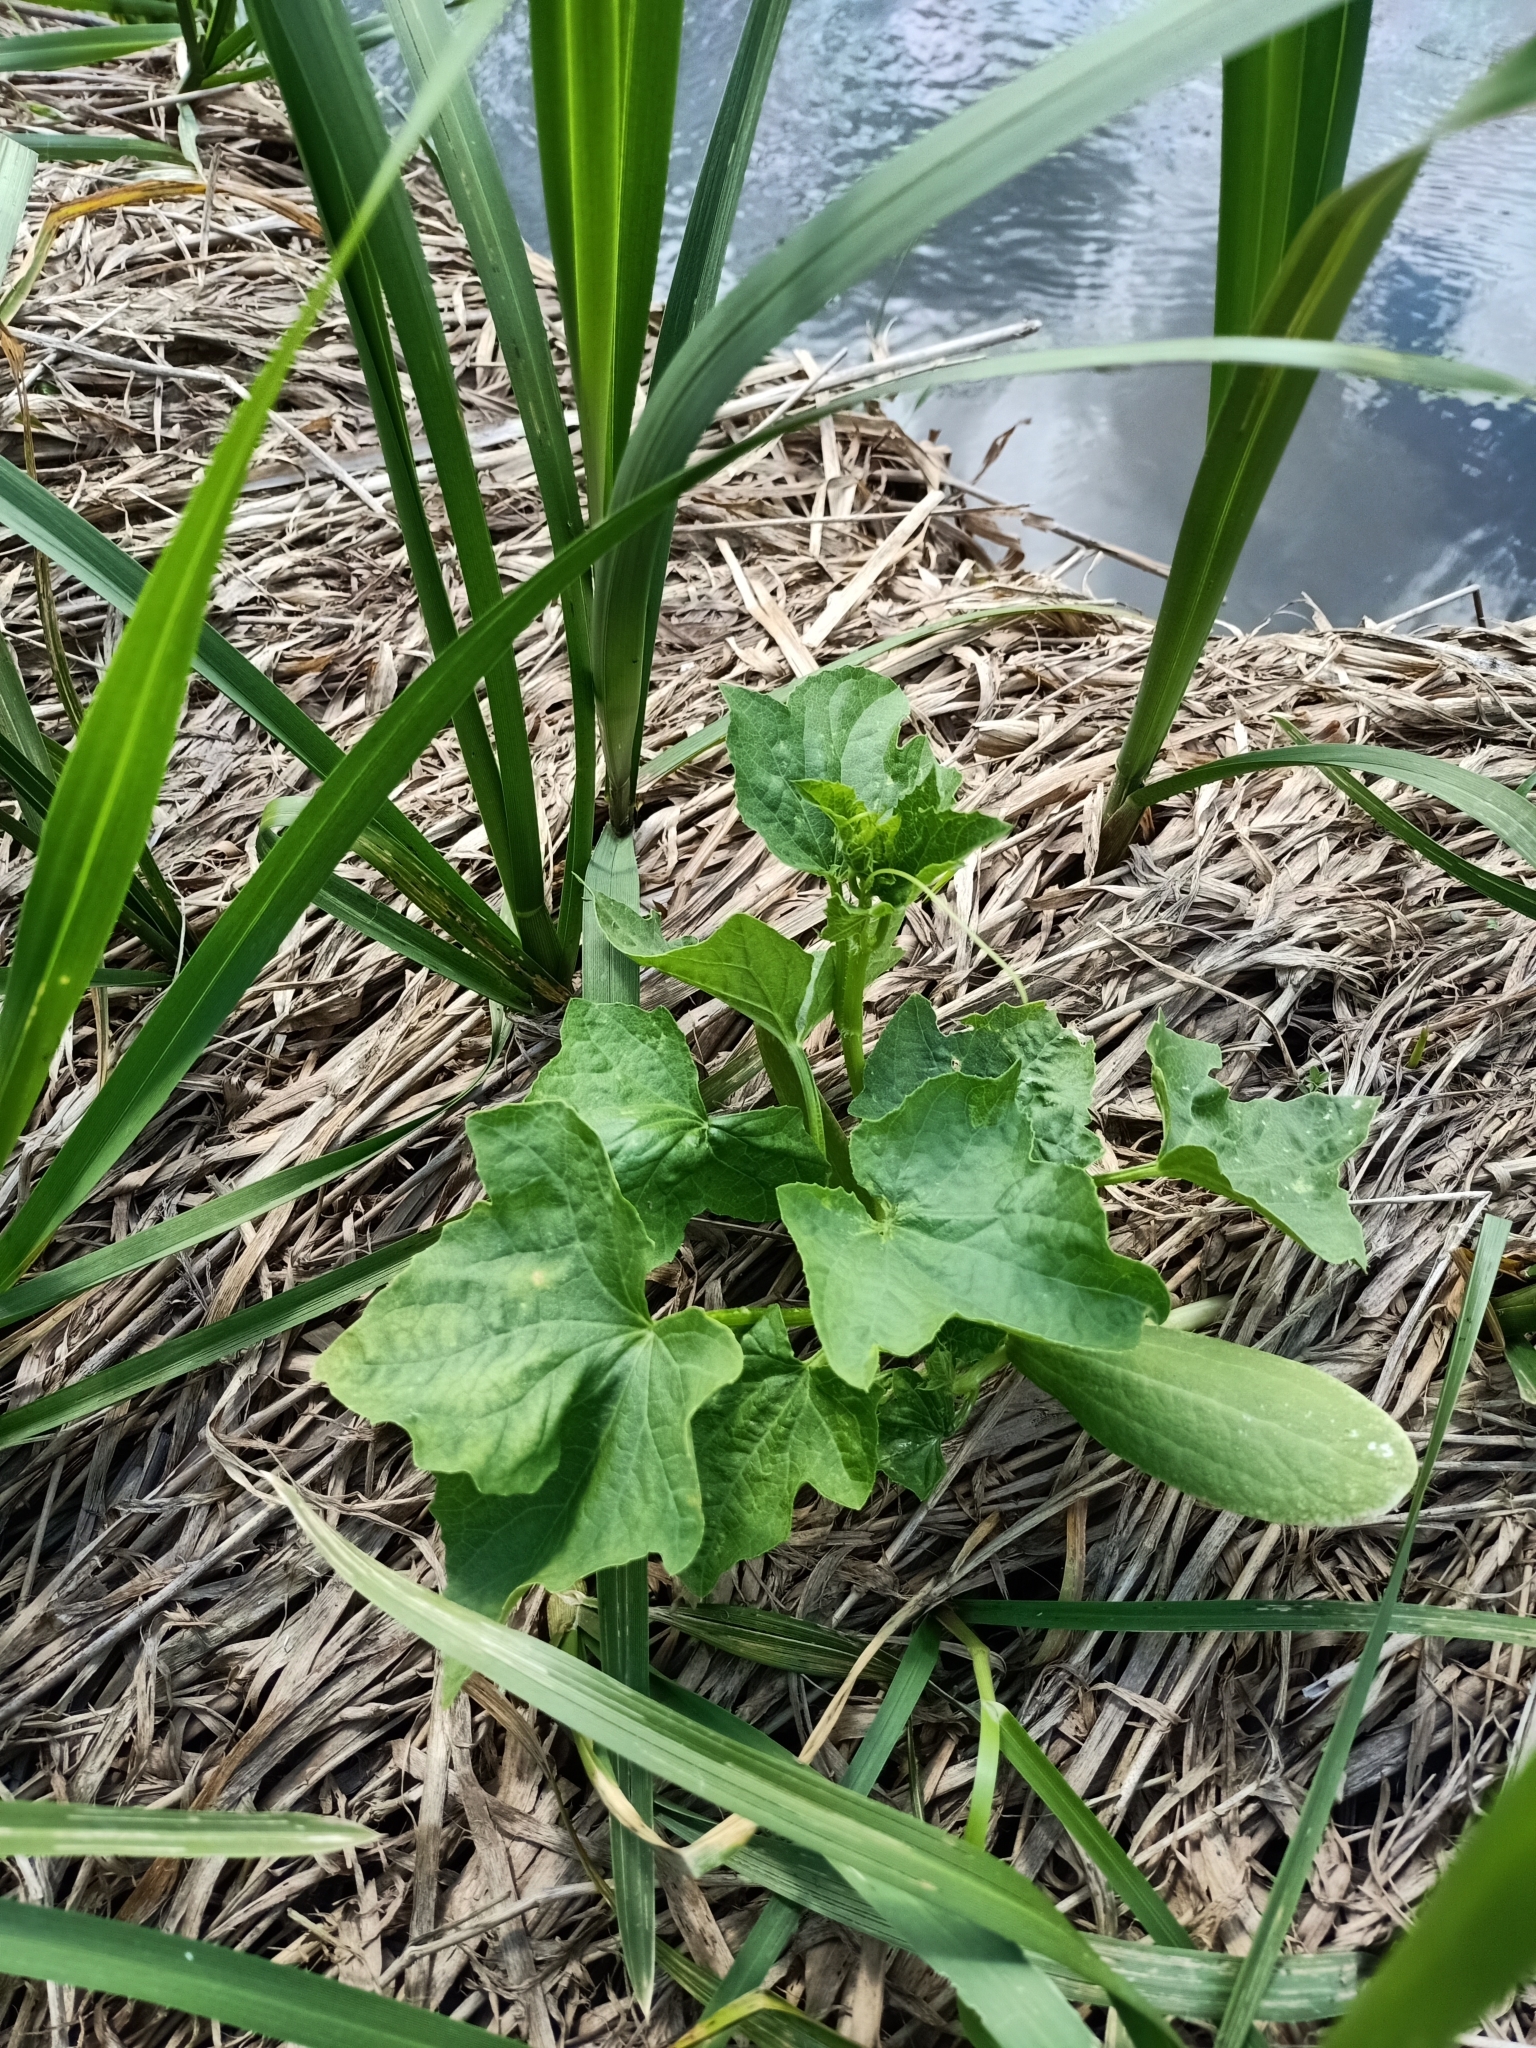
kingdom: Plantae
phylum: Tracheophyta
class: Magnoliopsida
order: Cucurbitales
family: Cucurbitaceae
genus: Echinocystis
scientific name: Echinocystis lobata
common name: Wild cucumber
